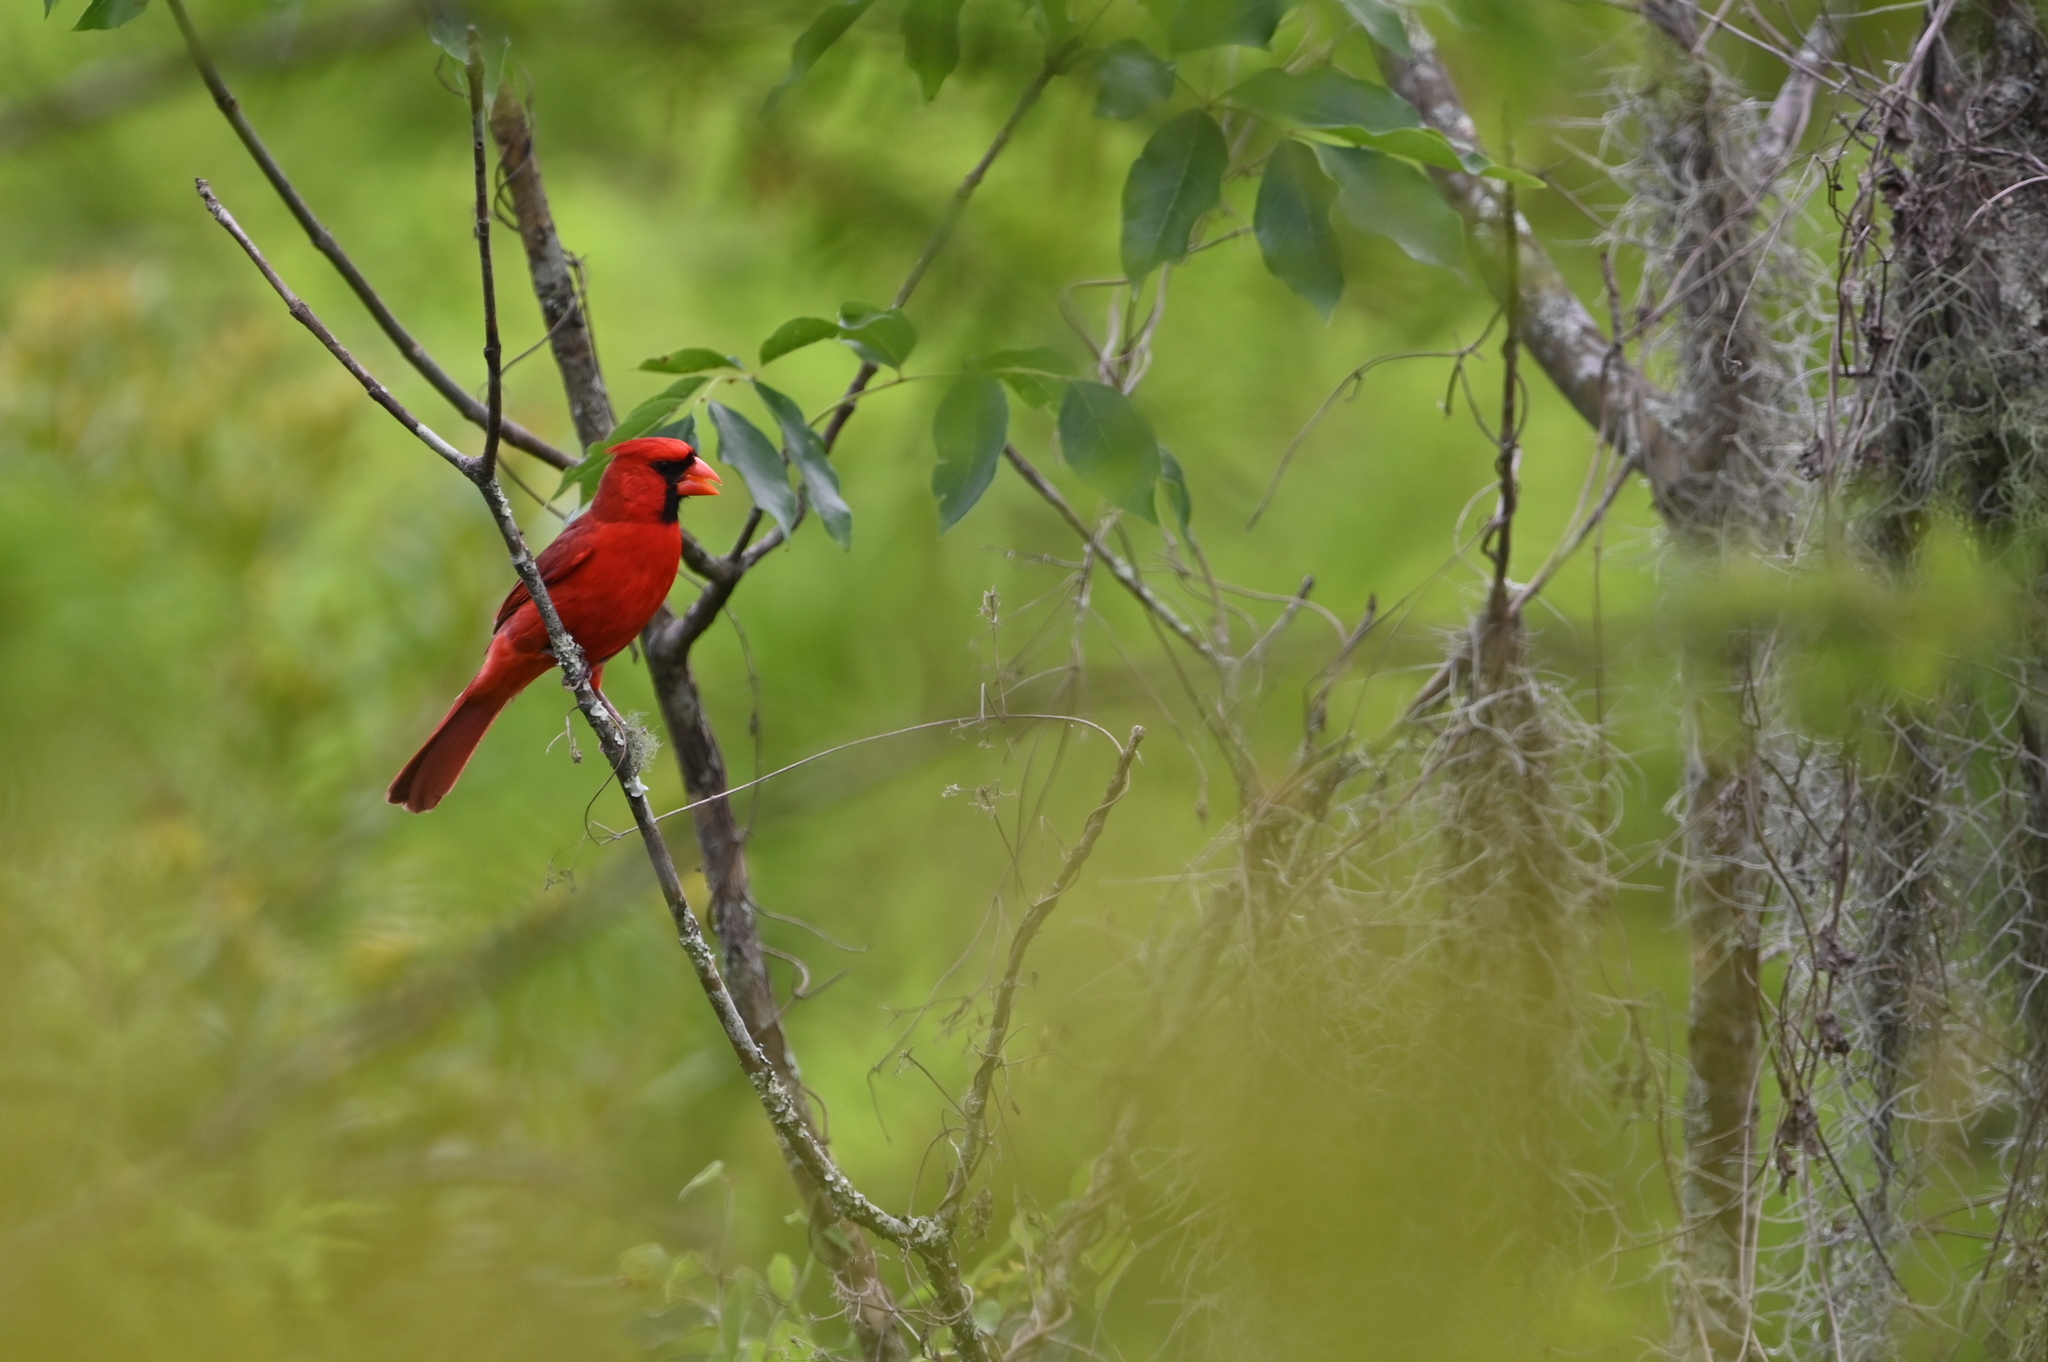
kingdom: Animalia
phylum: Chordata
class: Aves
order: Passeriformes
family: Cardinalidae
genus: Cardinalis
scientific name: Cardinalis cardinalis
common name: Northern cardinal
